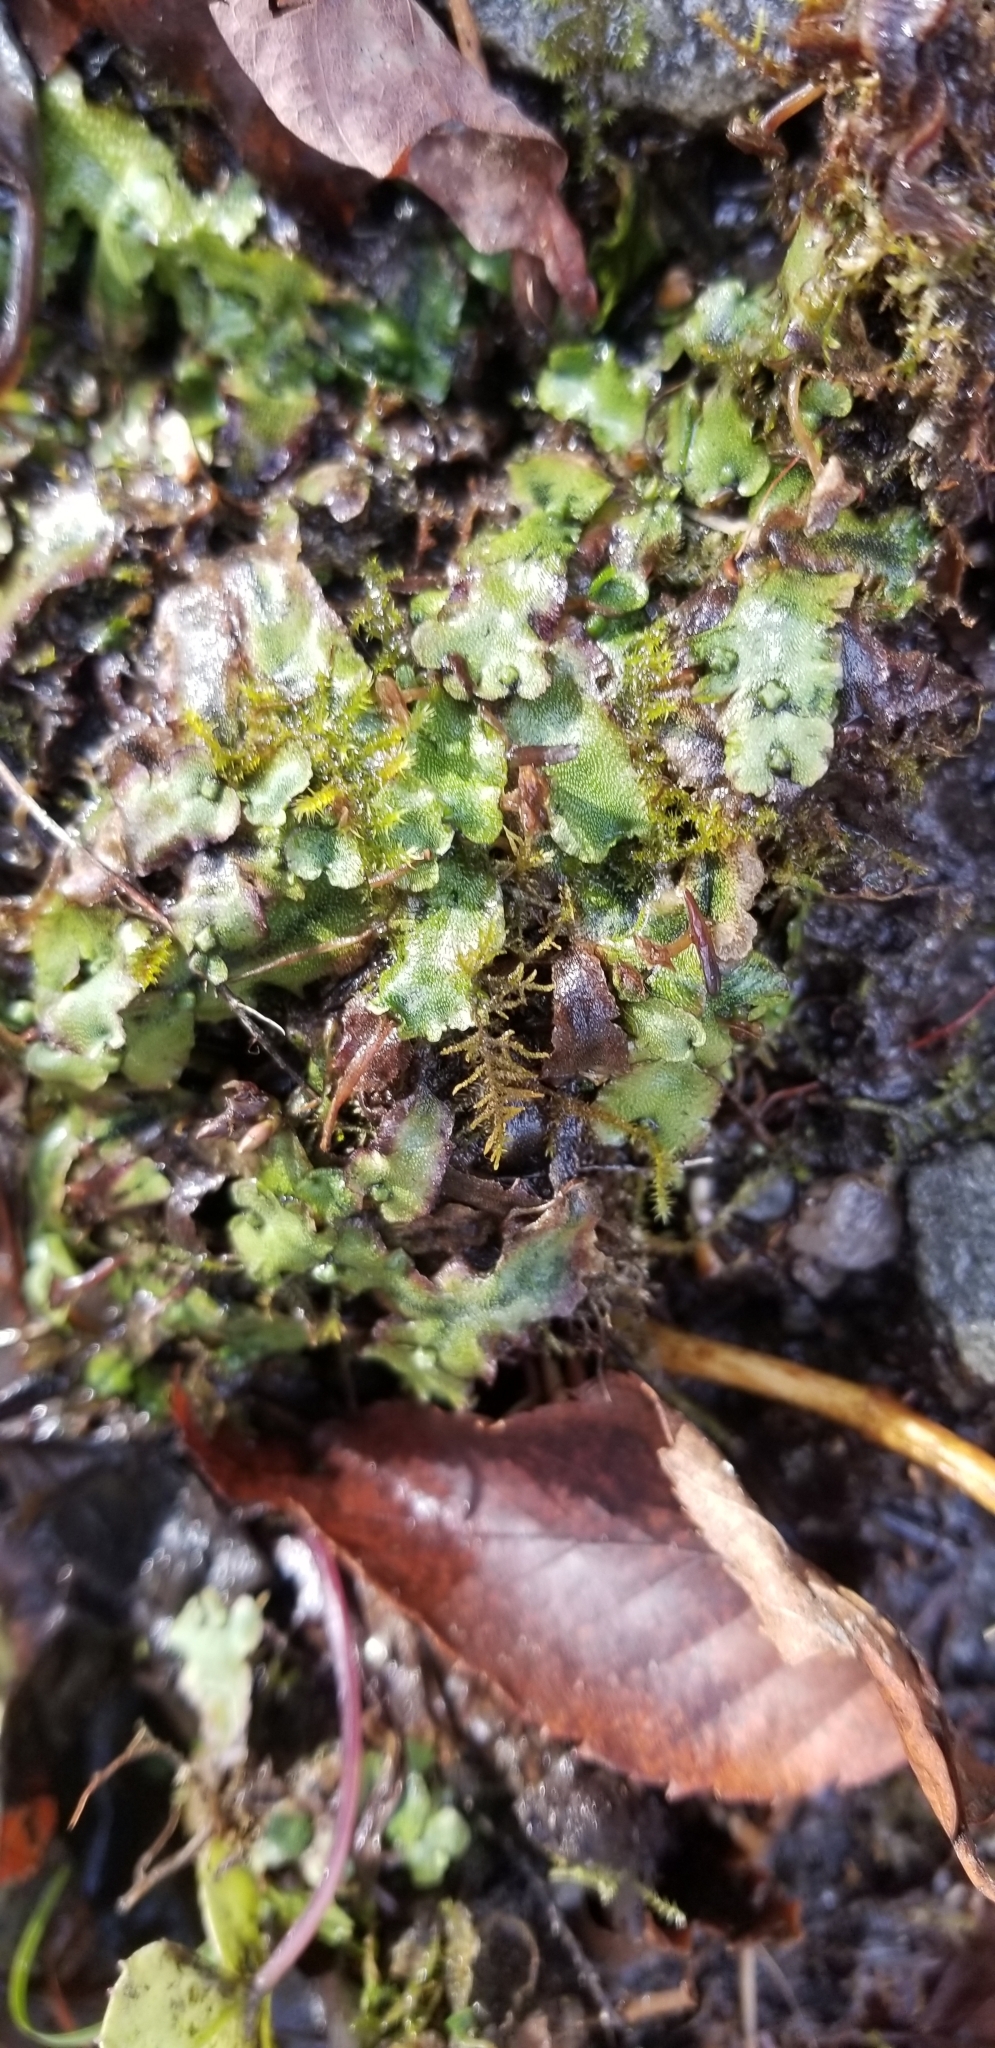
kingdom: Plantae
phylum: Marchantiophyta
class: Marchantiopsida
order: Marchantiales
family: Marchantiaceae
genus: Marchantia
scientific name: Marchantia quadrata
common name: Narrow mushroom-headed liverwort
